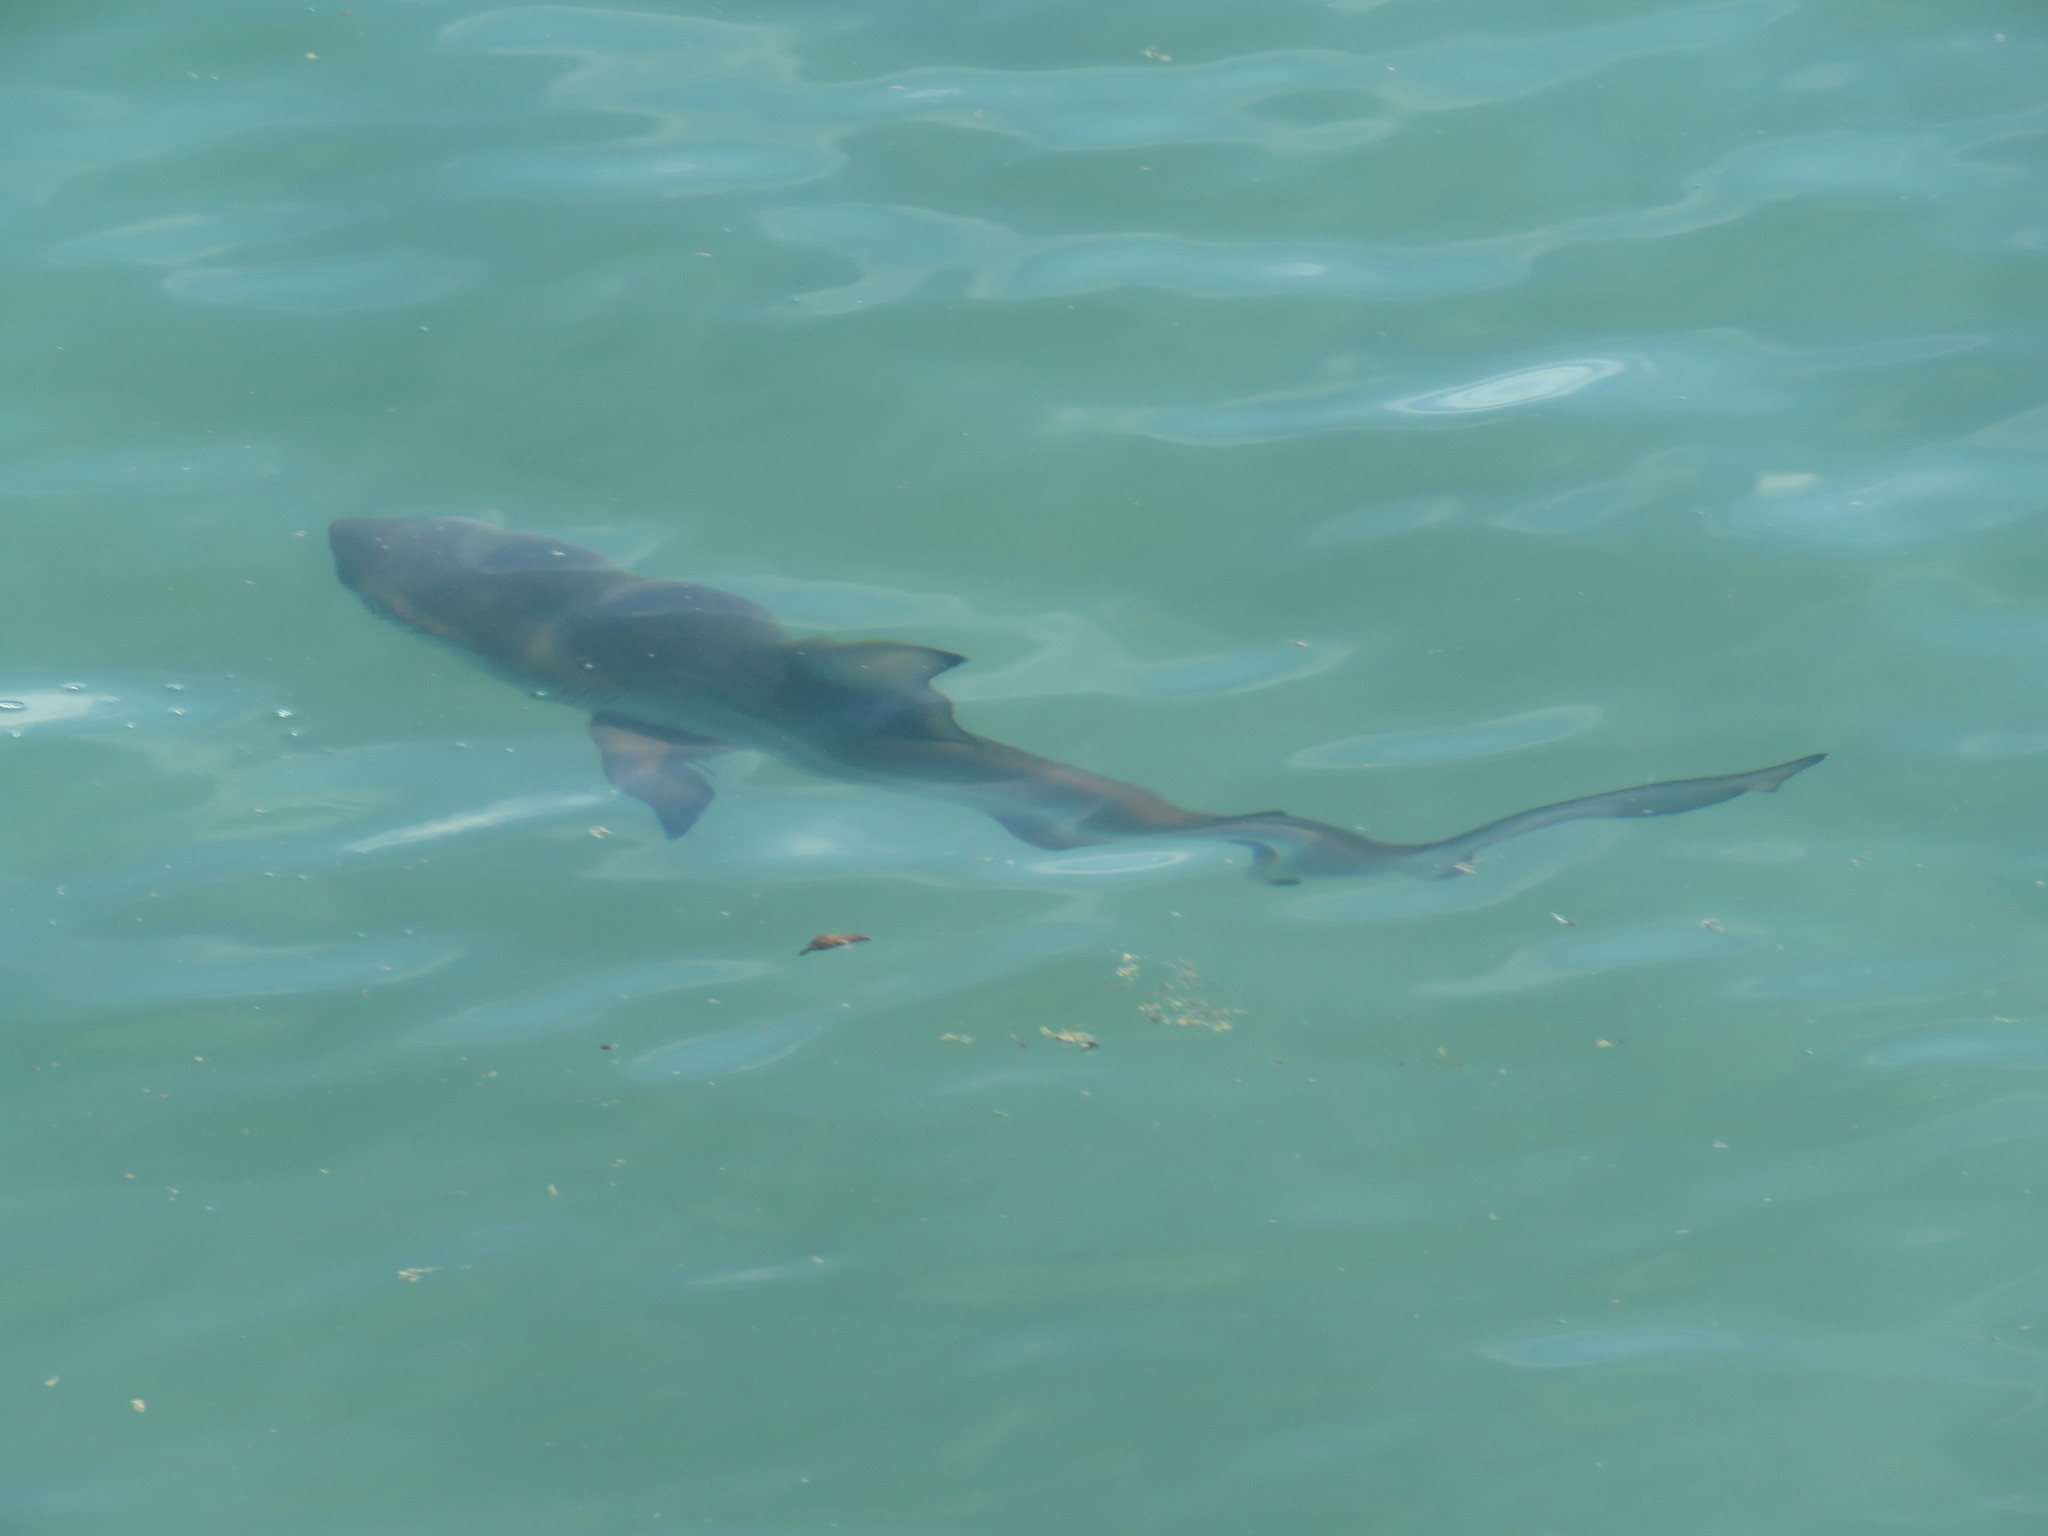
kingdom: Animalia
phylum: Chordata
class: Elasmobranchii
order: Carcharhiniformes
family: Carcharhinidae
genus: Carcharhinus
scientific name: Carcharhinus limbatus
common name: Blacktip shark
